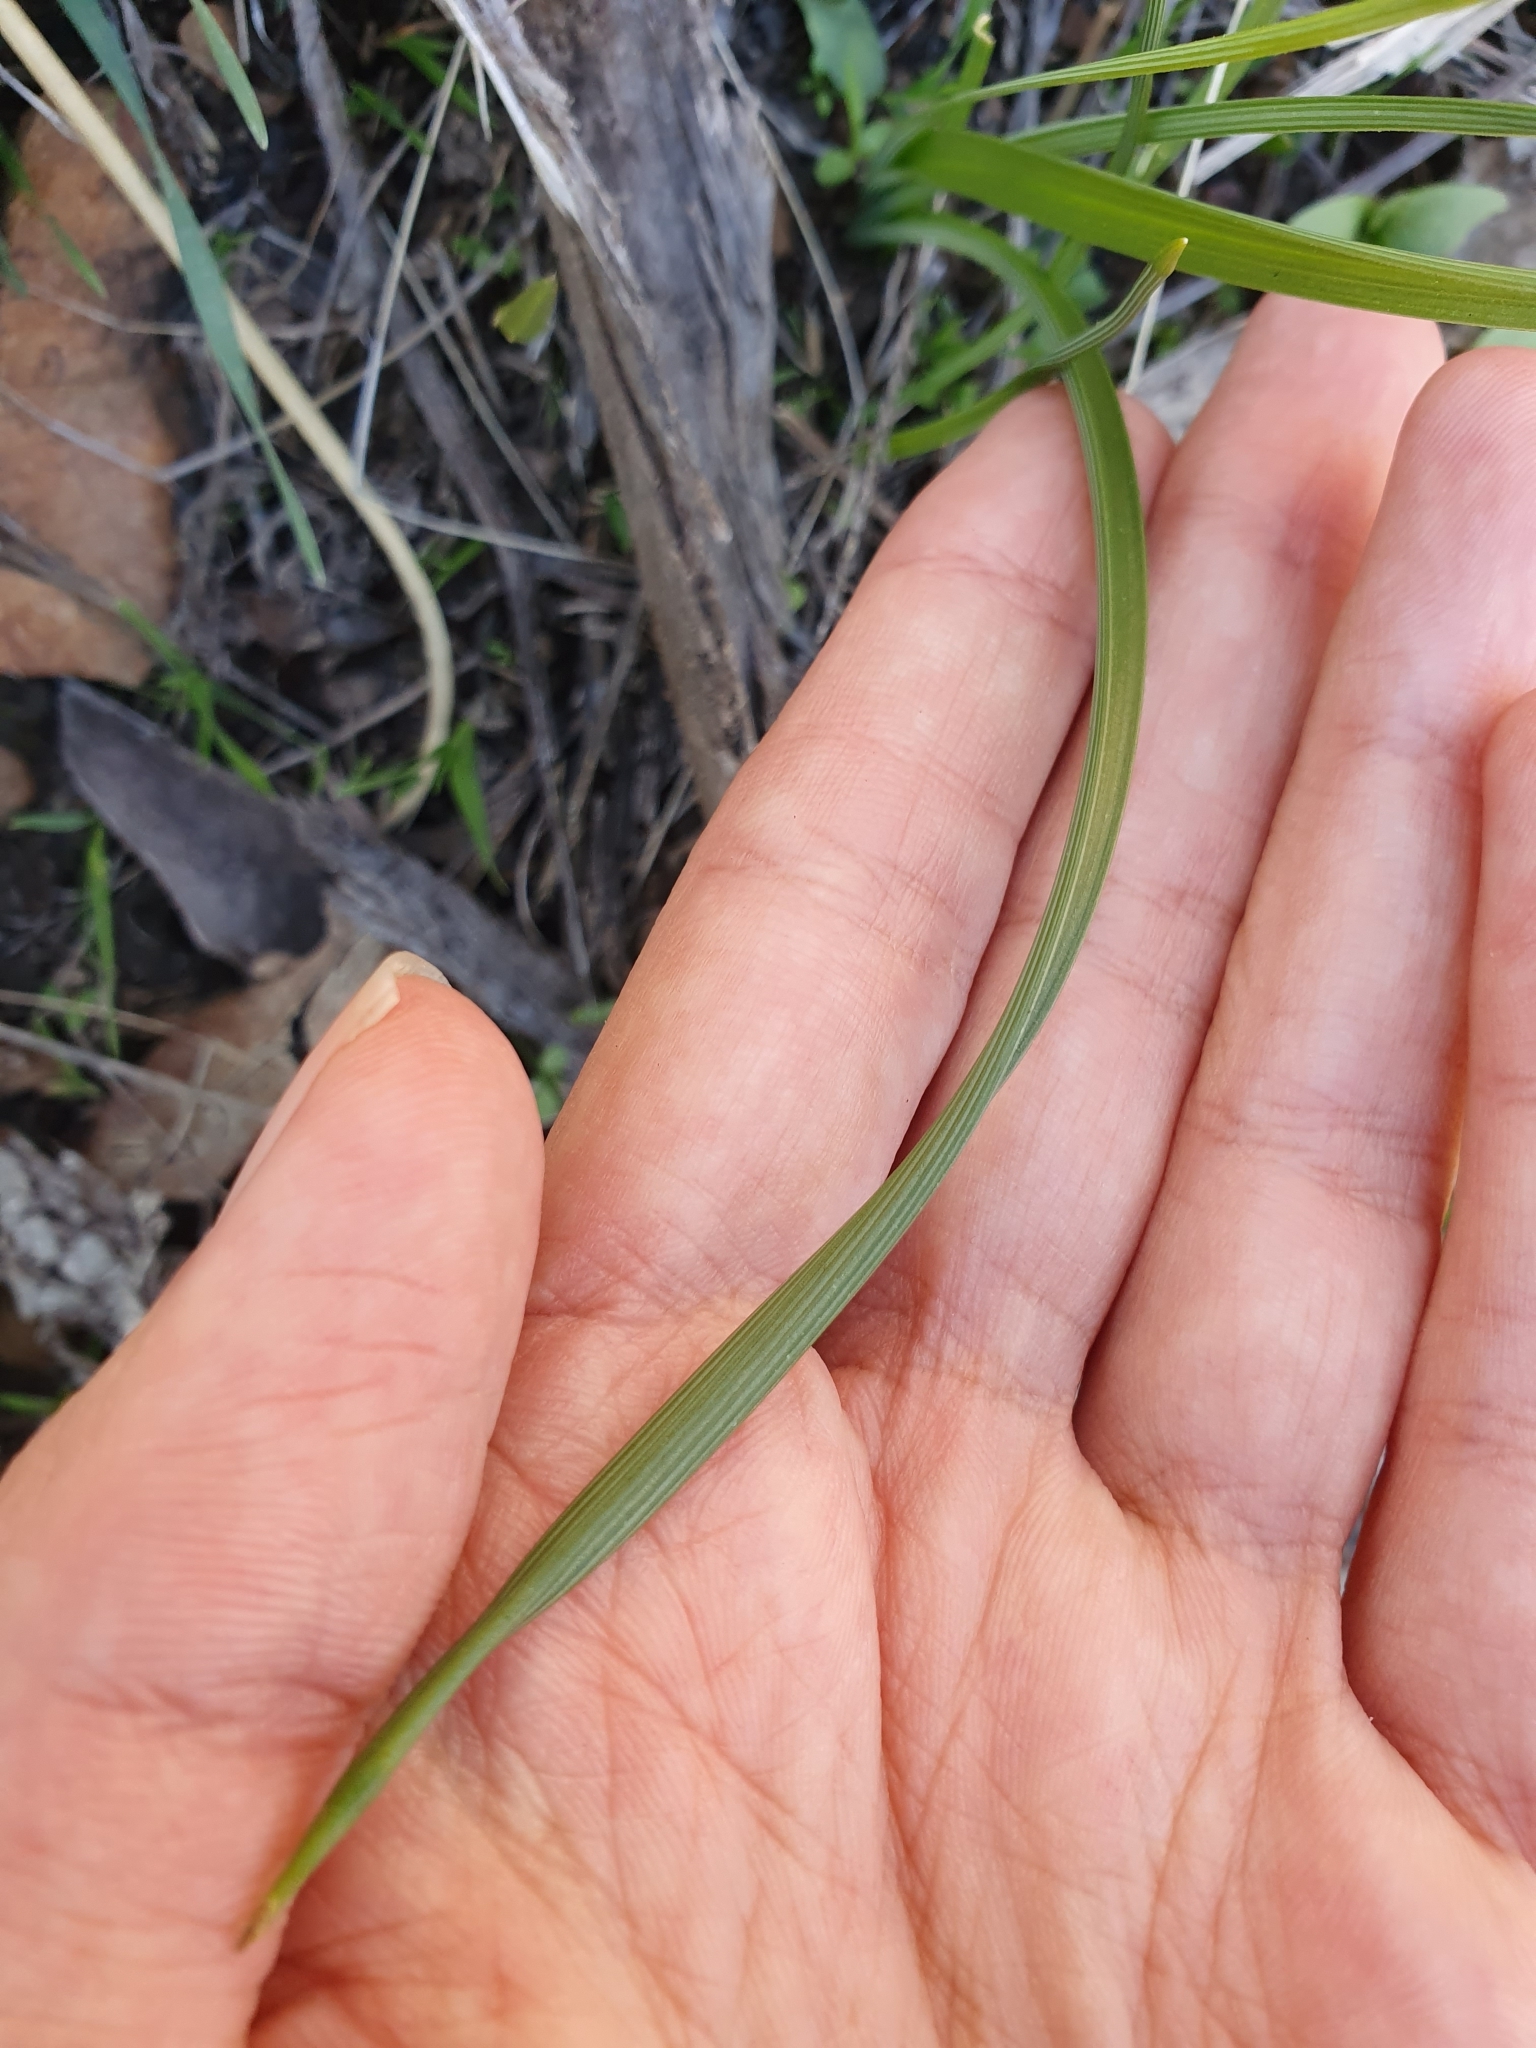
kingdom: Plantae
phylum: Tracheophyta
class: Liliopsida
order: Asparagales
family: Asparagaceae
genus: Prospero
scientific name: Prospero fallax
